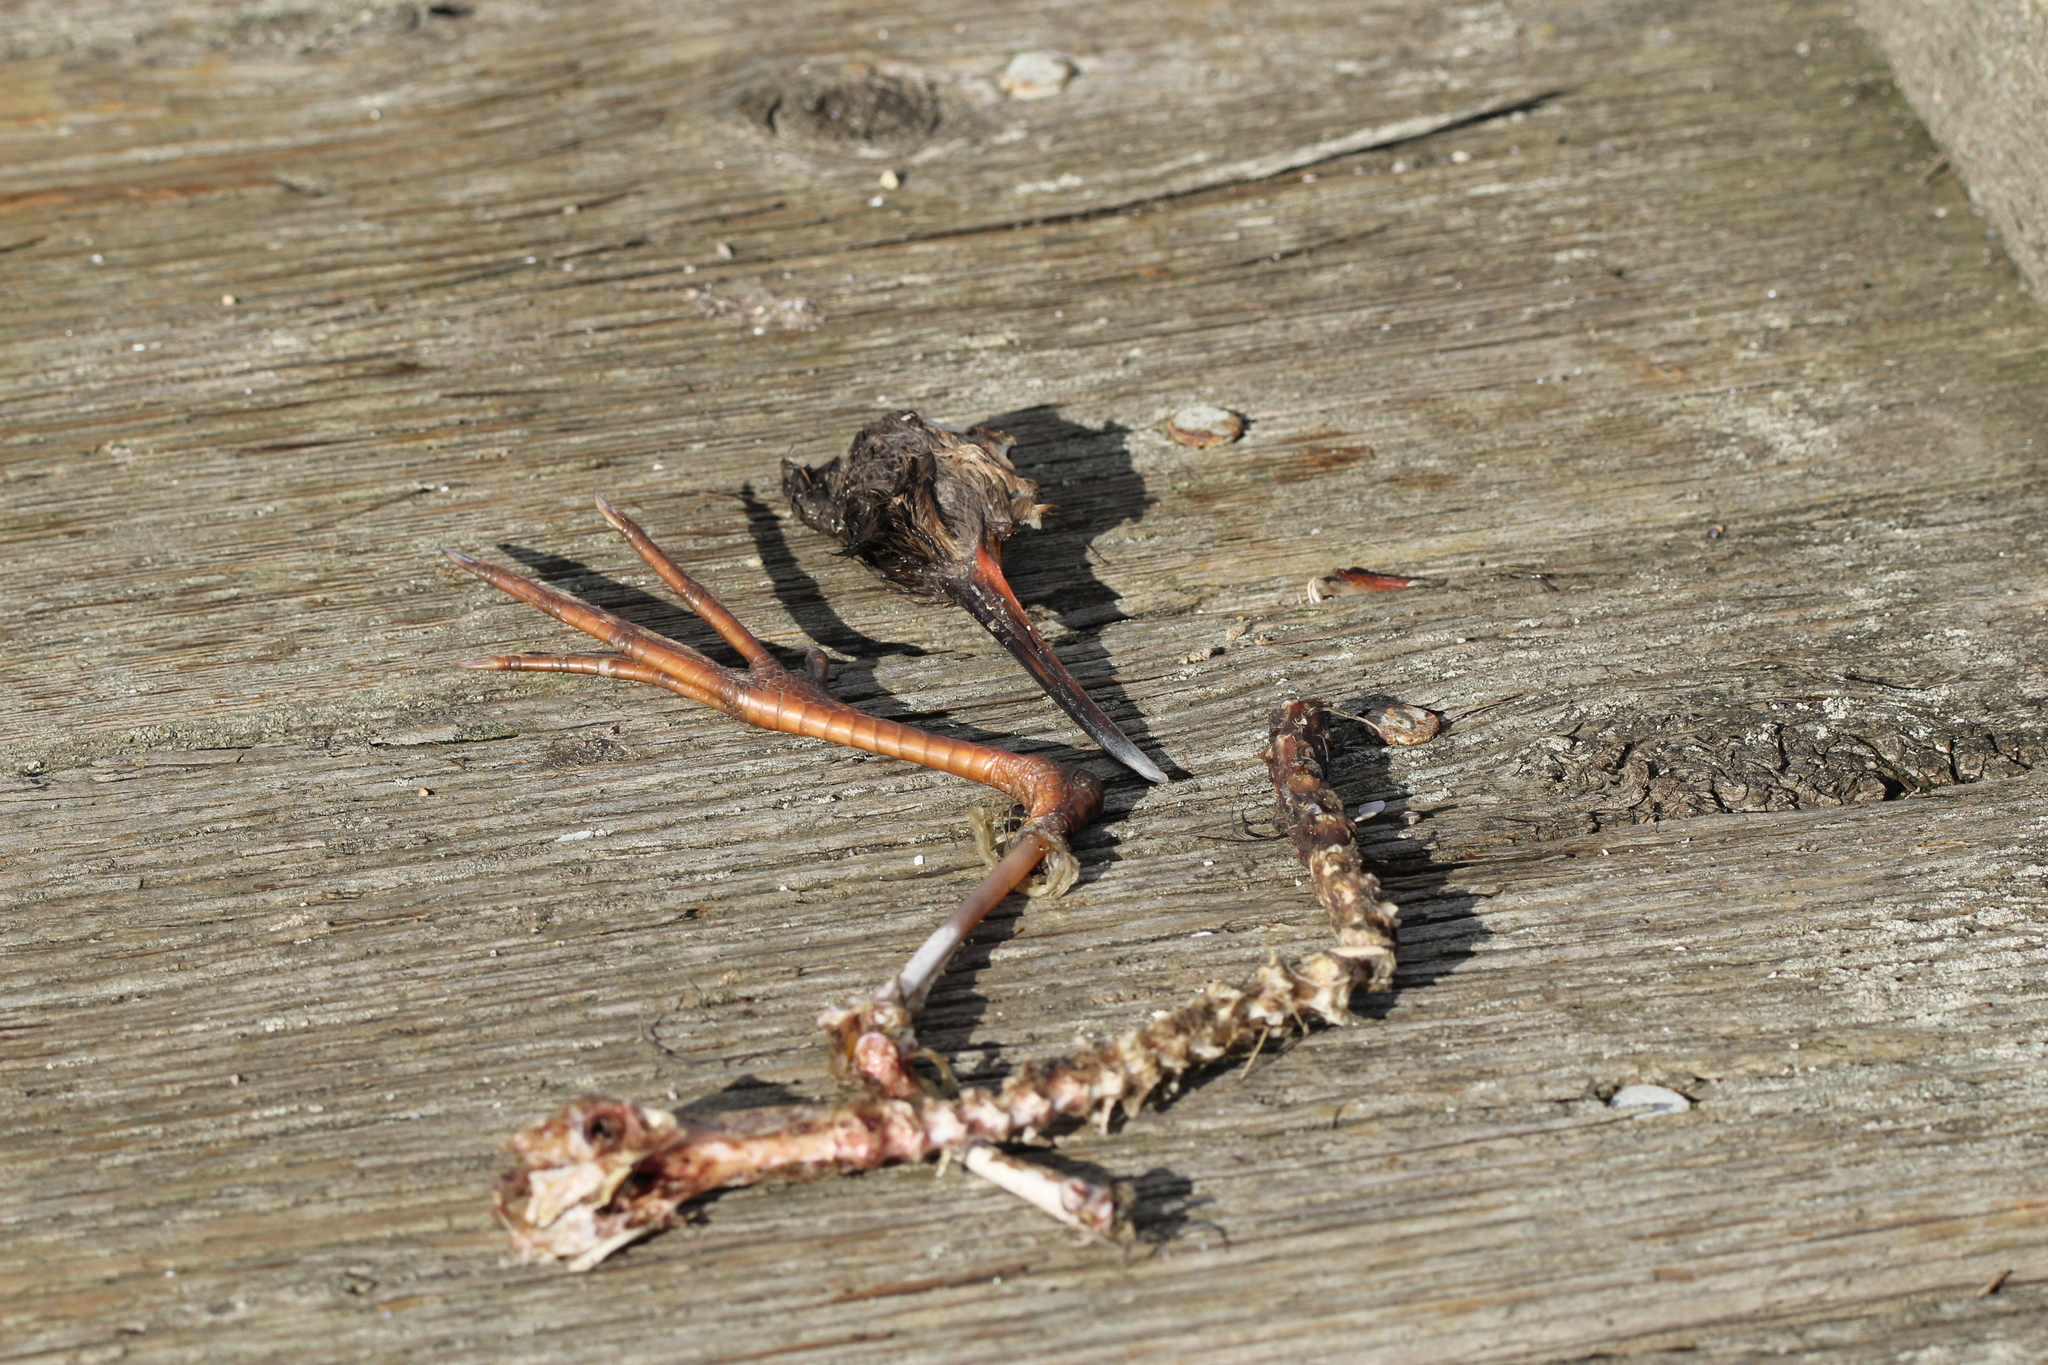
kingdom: Animalia
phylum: Chordata
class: Aves
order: Gruiformes
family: Rallidae
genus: Rallus
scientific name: Rallus obsoletus
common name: Ridgway's rail
